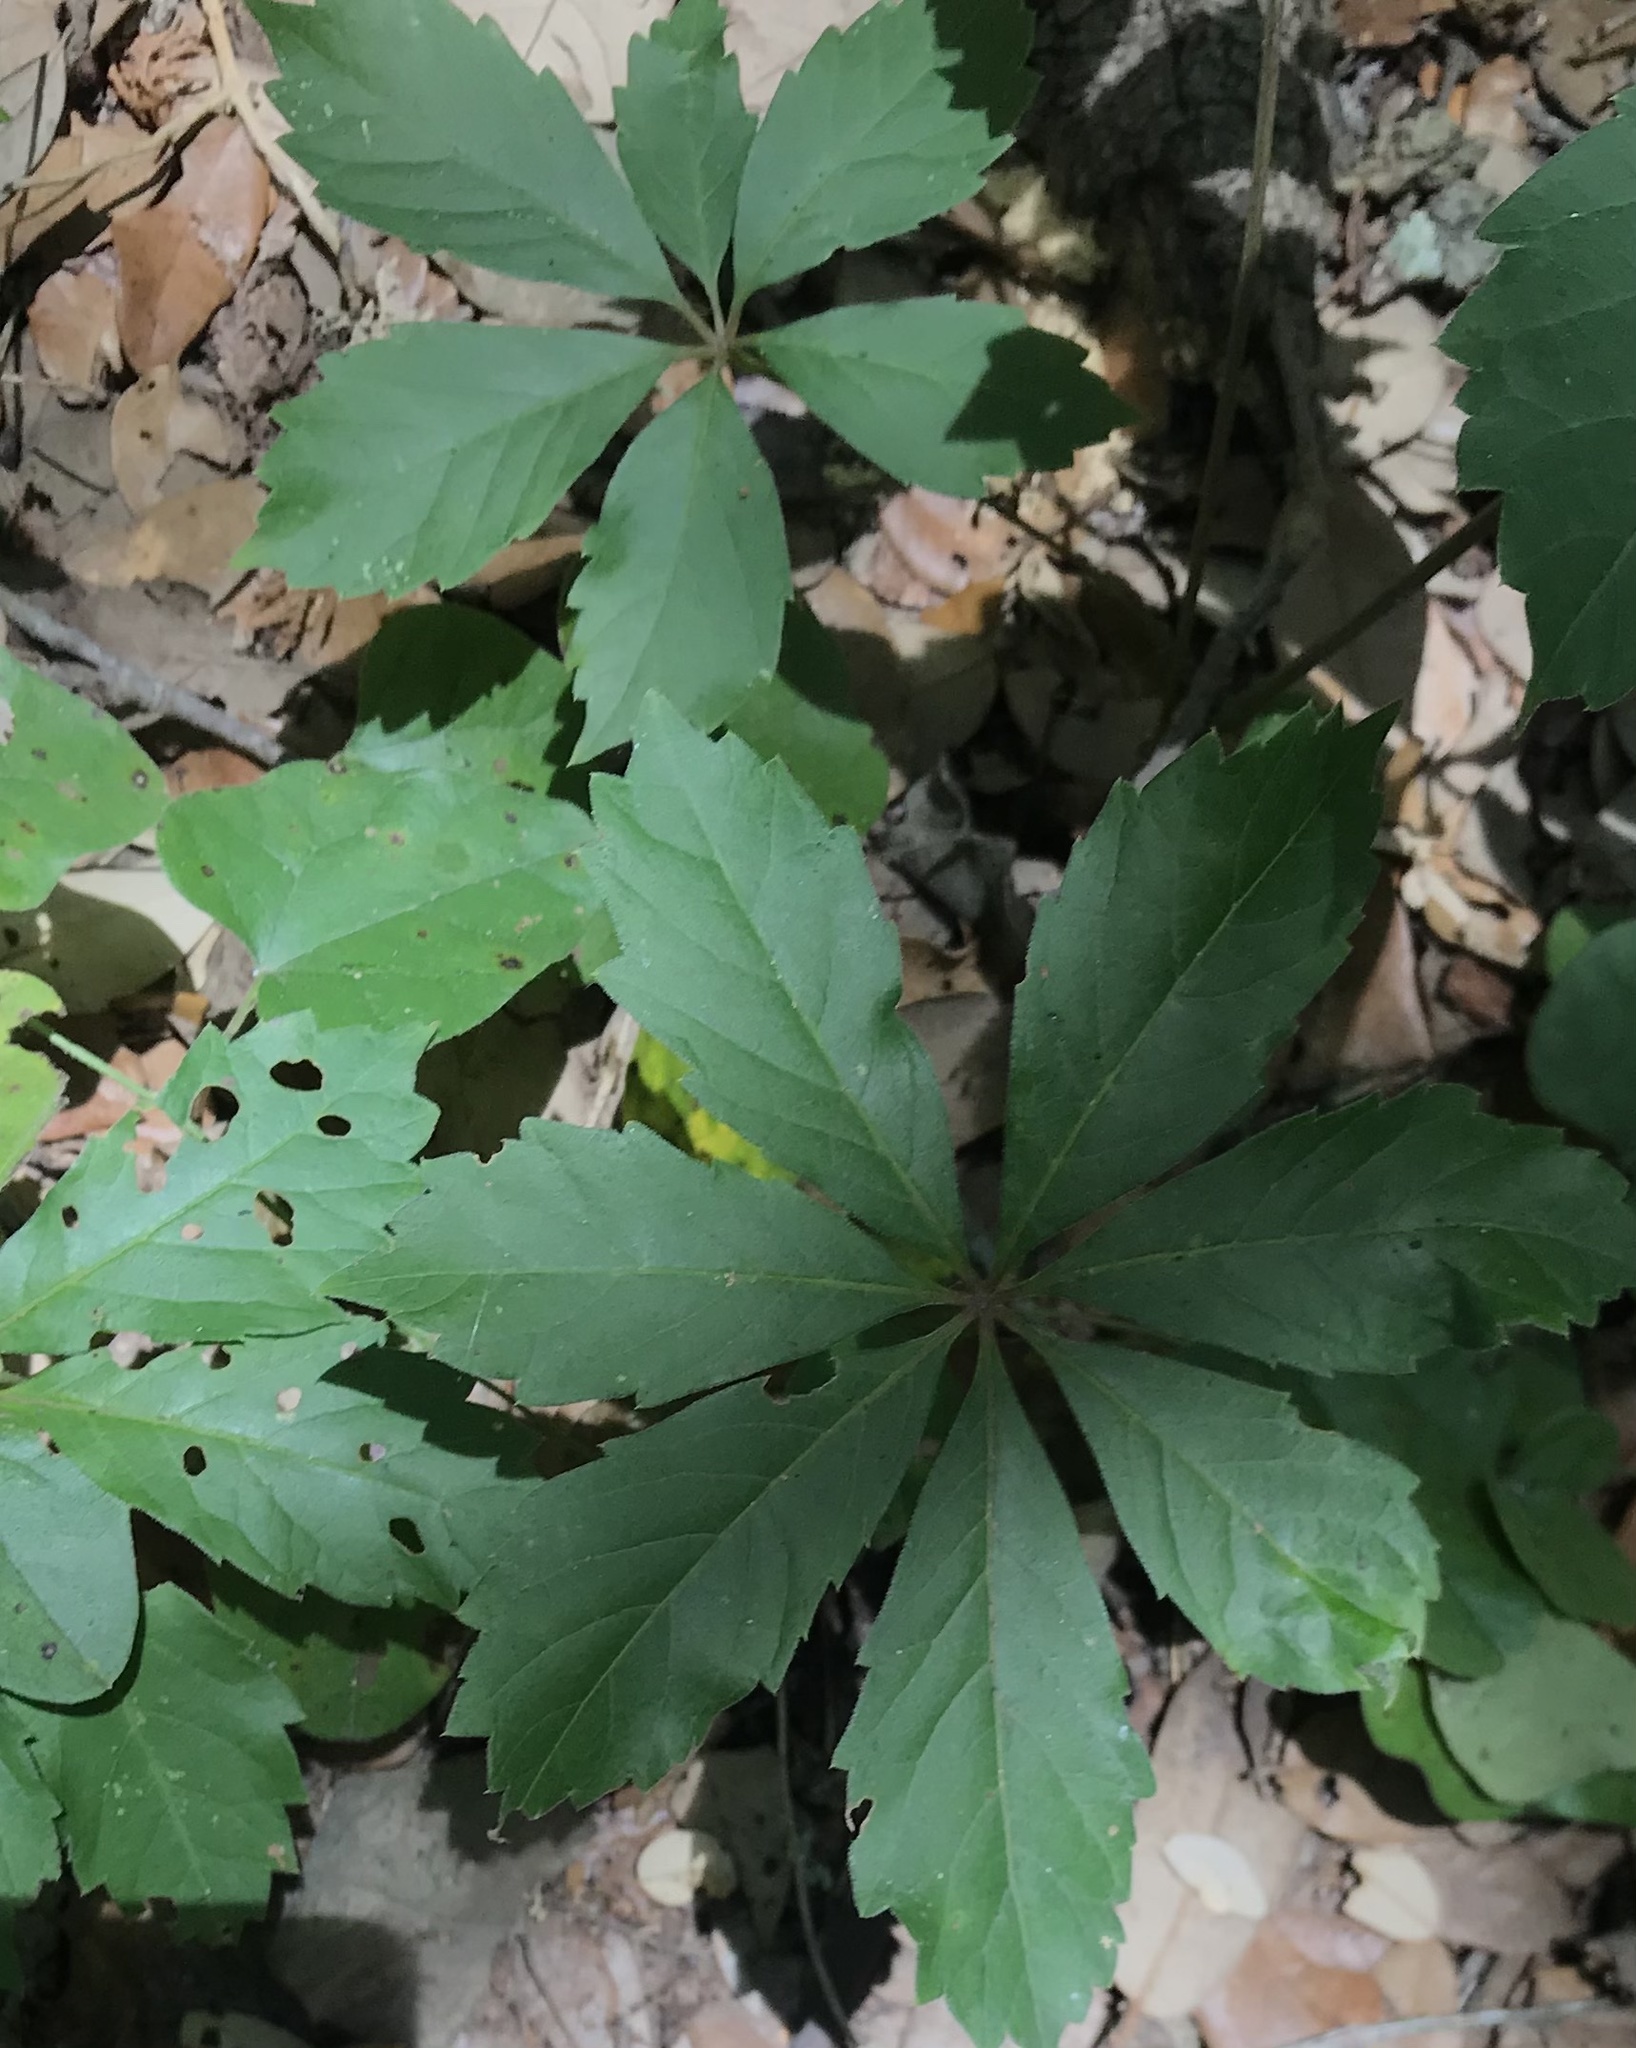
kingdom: Plantae
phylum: Tracheophyta
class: Magnoliopsida
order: Vitales
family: Vitaceae
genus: Parthenocissus
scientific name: Parthenocissus heptaphylla
